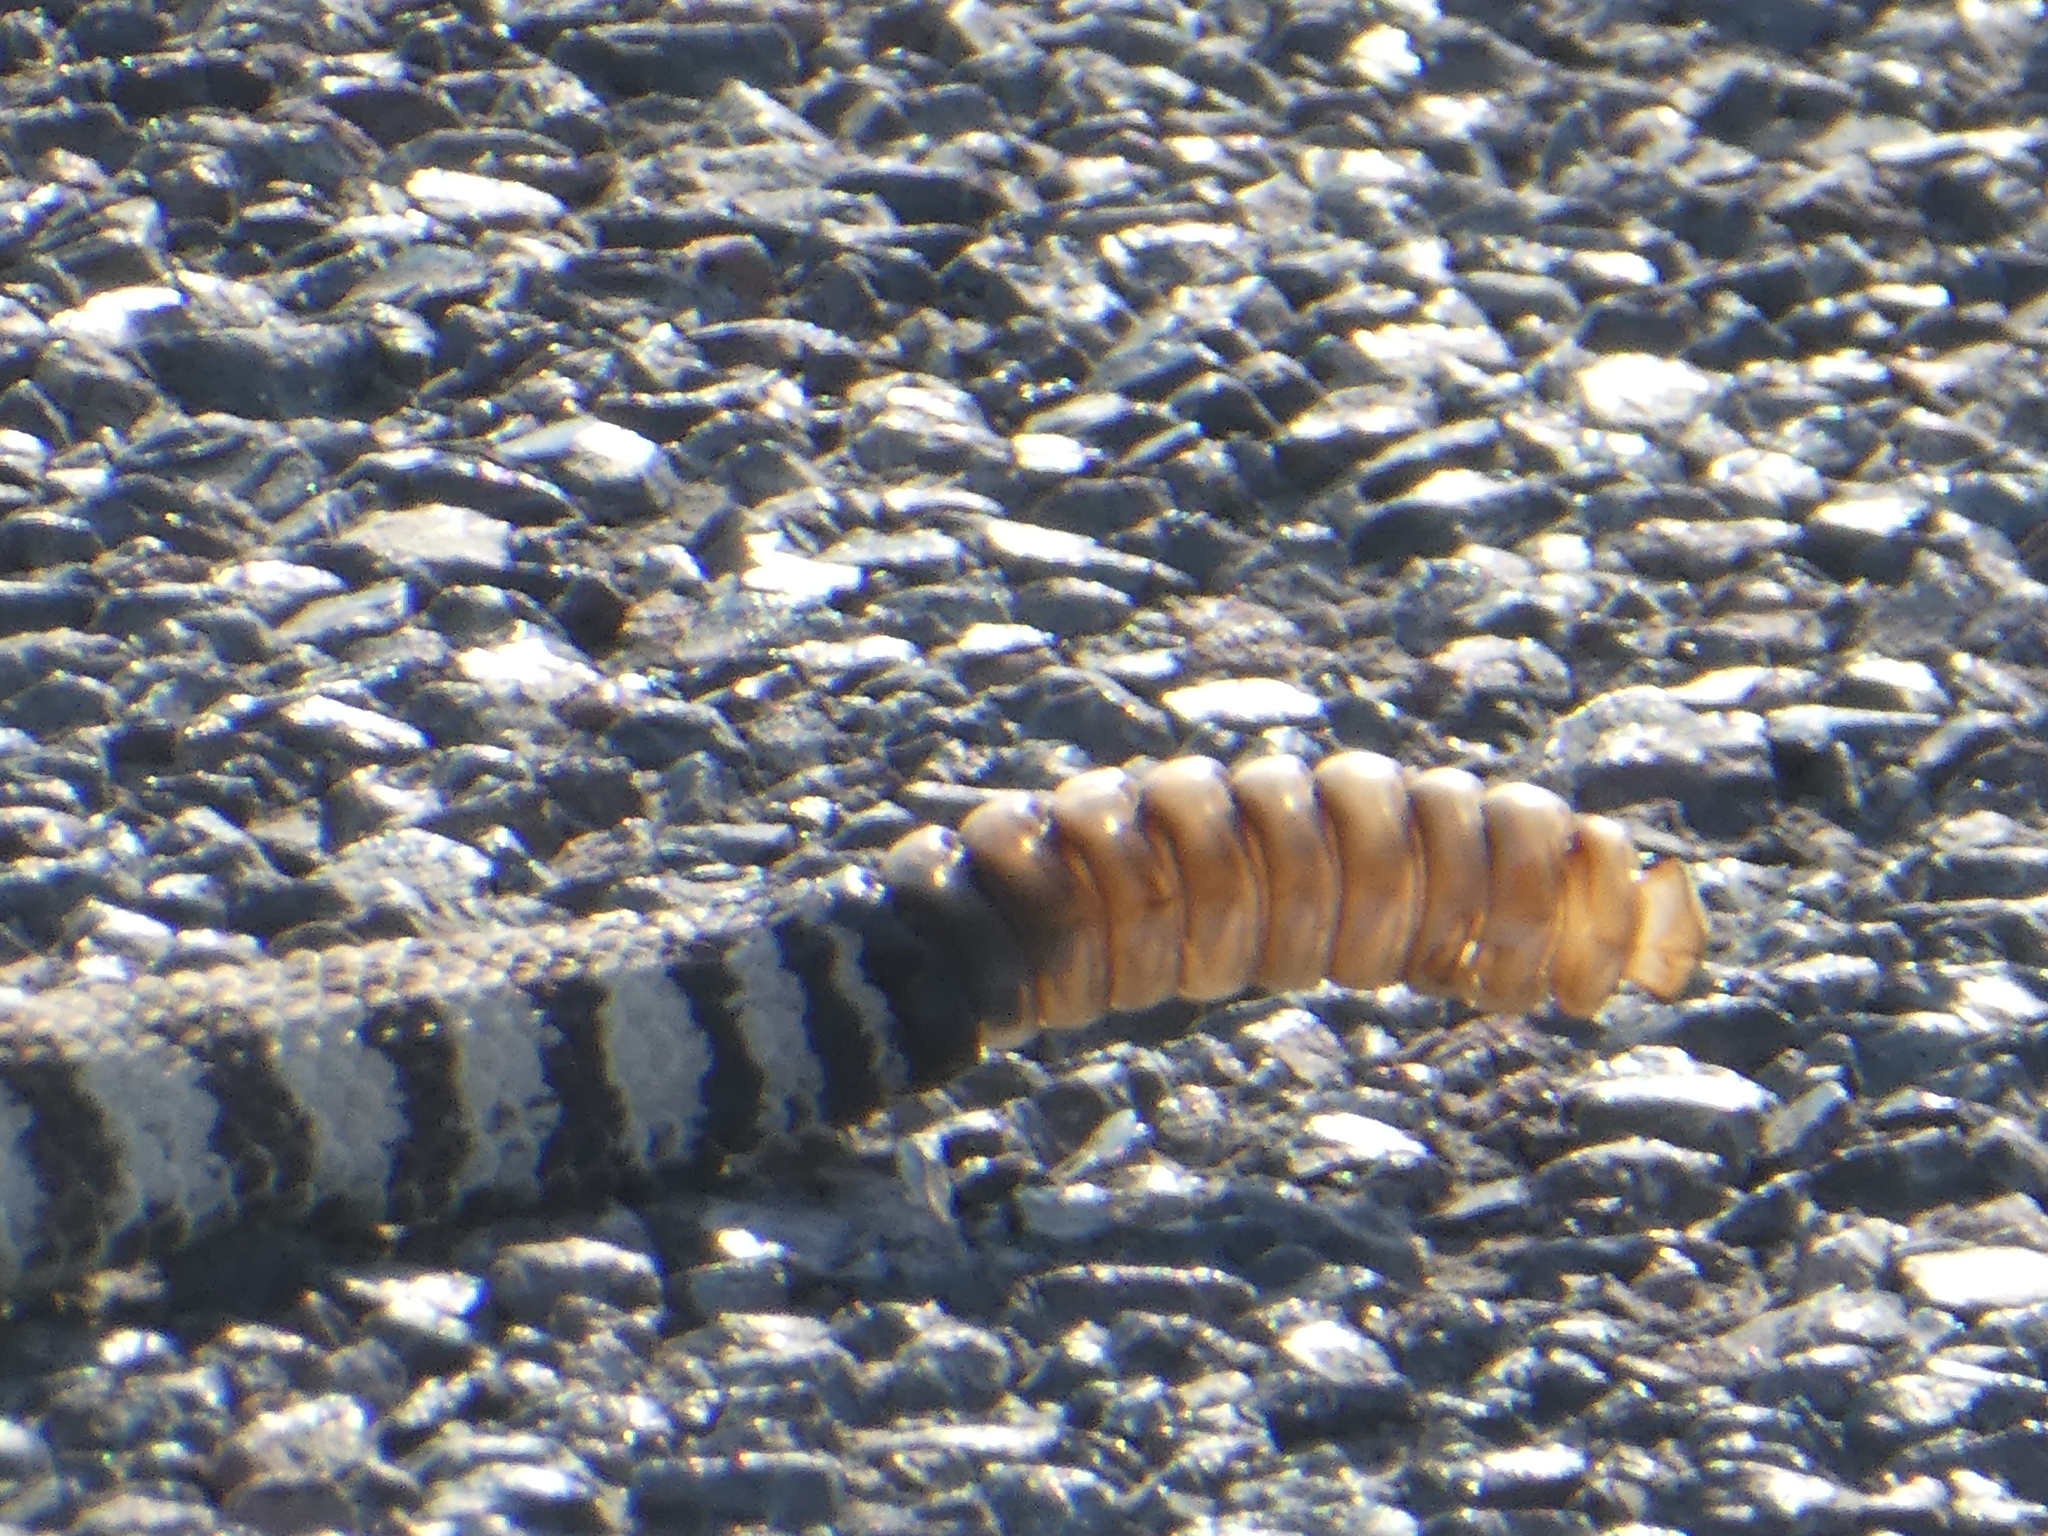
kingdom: Animalia
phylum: Chordata
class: Squamata
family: Viperidae
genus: Crotalus
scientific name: Crotalus oreganus
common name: Abyssus
